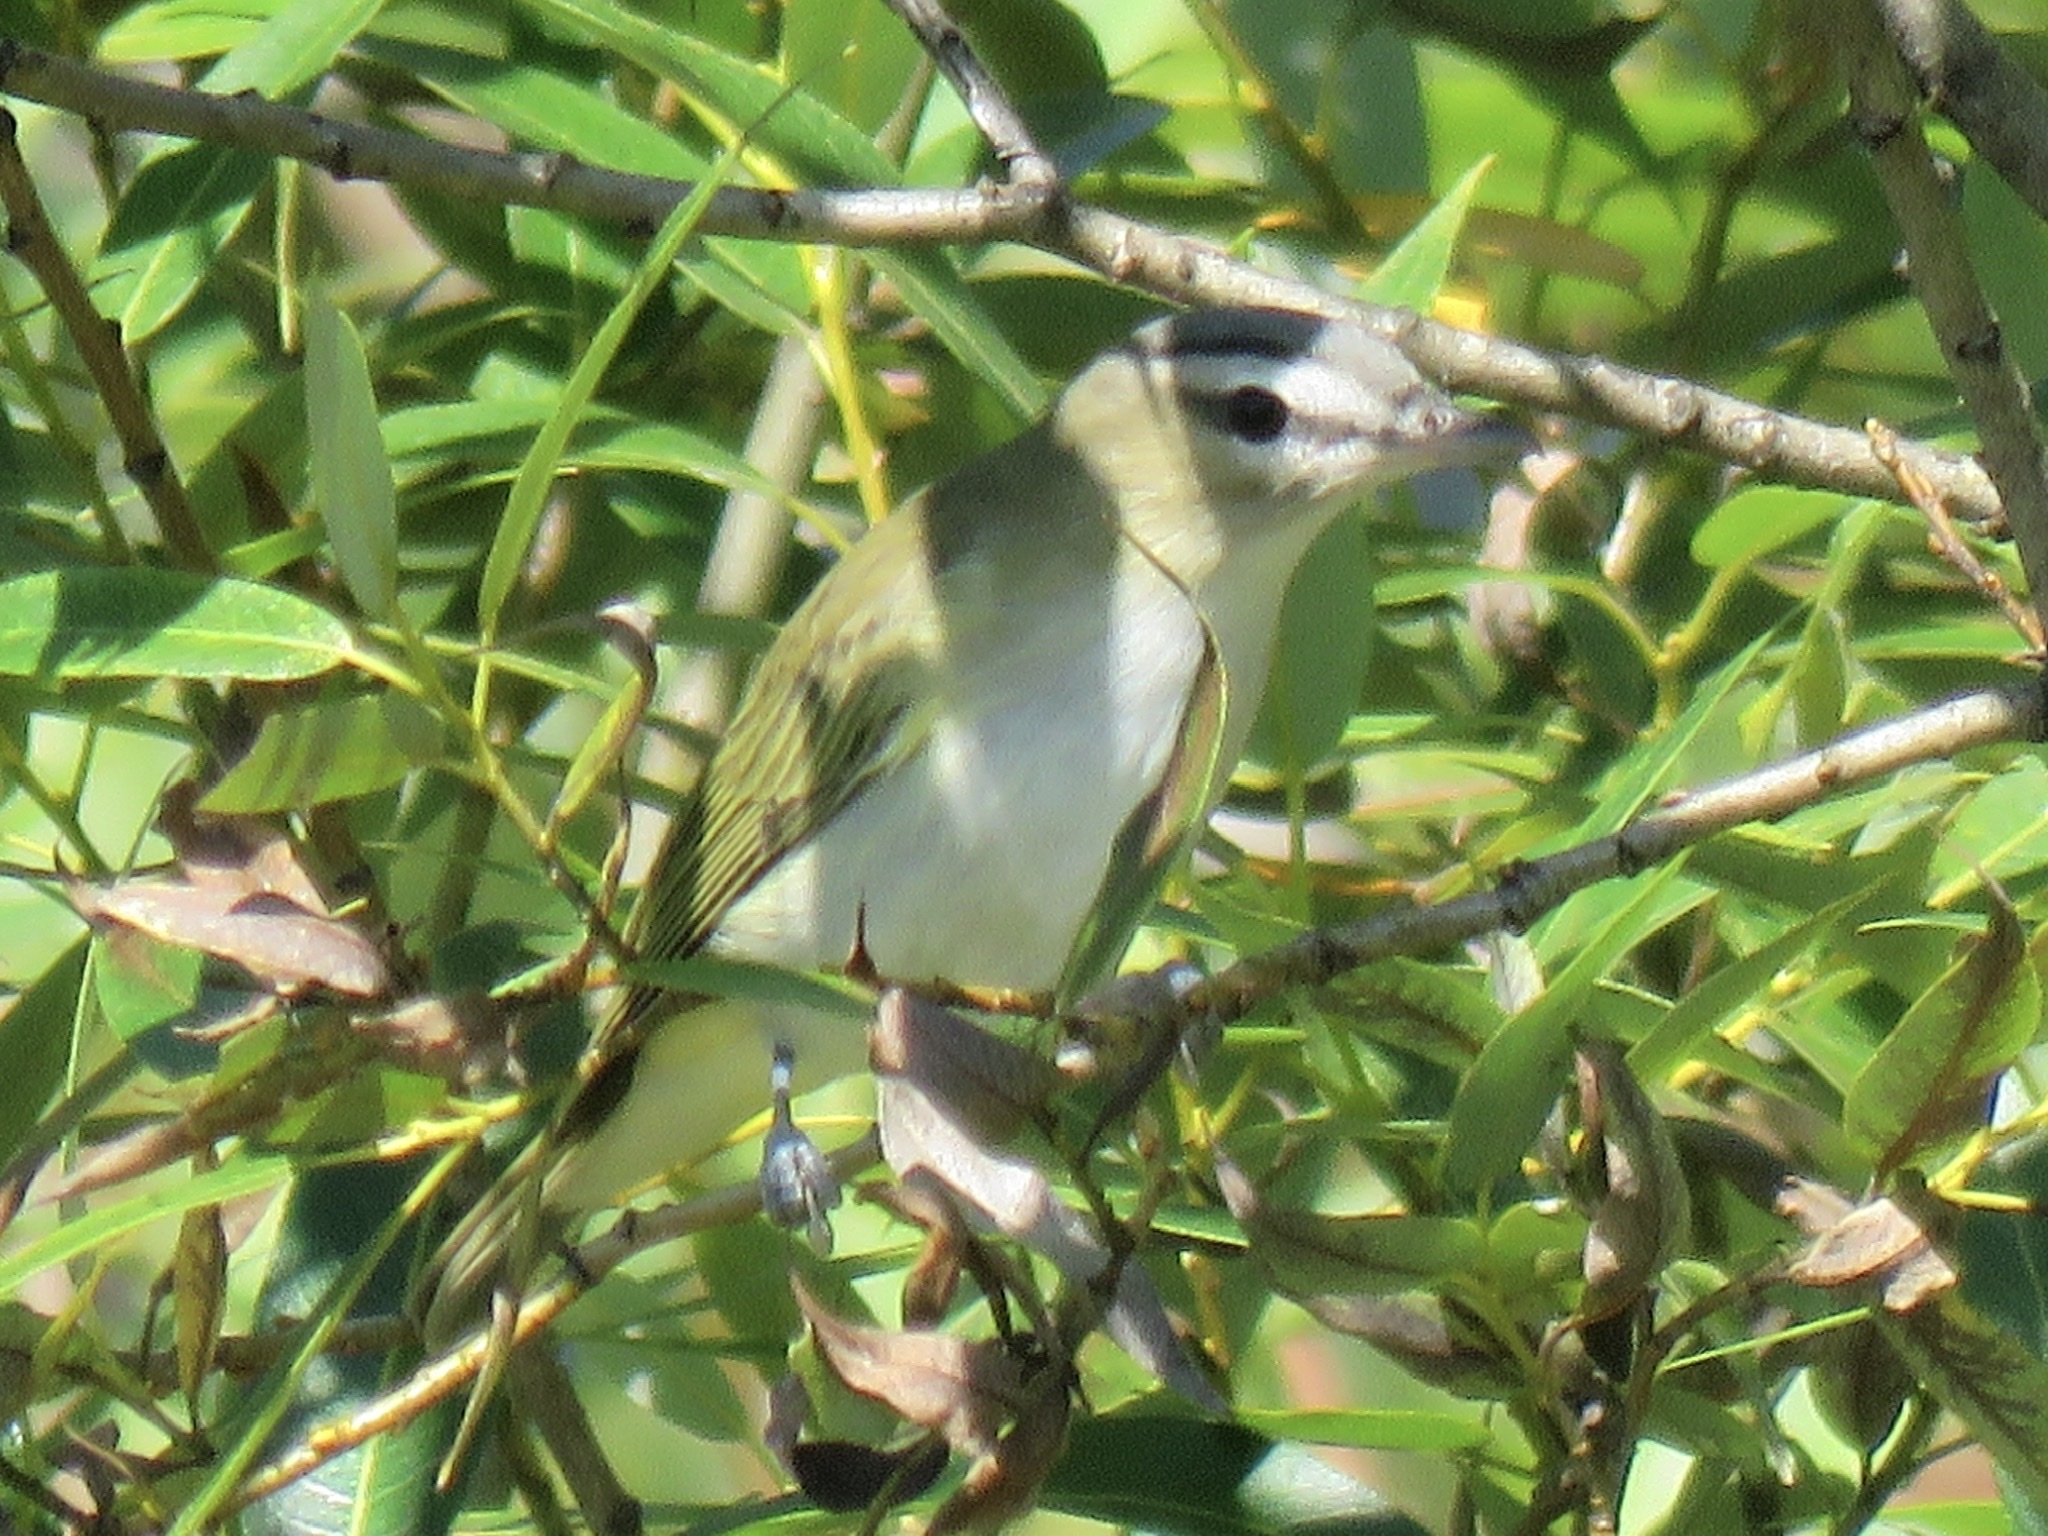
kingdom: Animalia
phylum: Chordata
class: Aves
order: Passeriformes
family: Vireonidae
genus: Vireo
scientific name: Vireo olivaceus
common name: Red-eyed vireo
